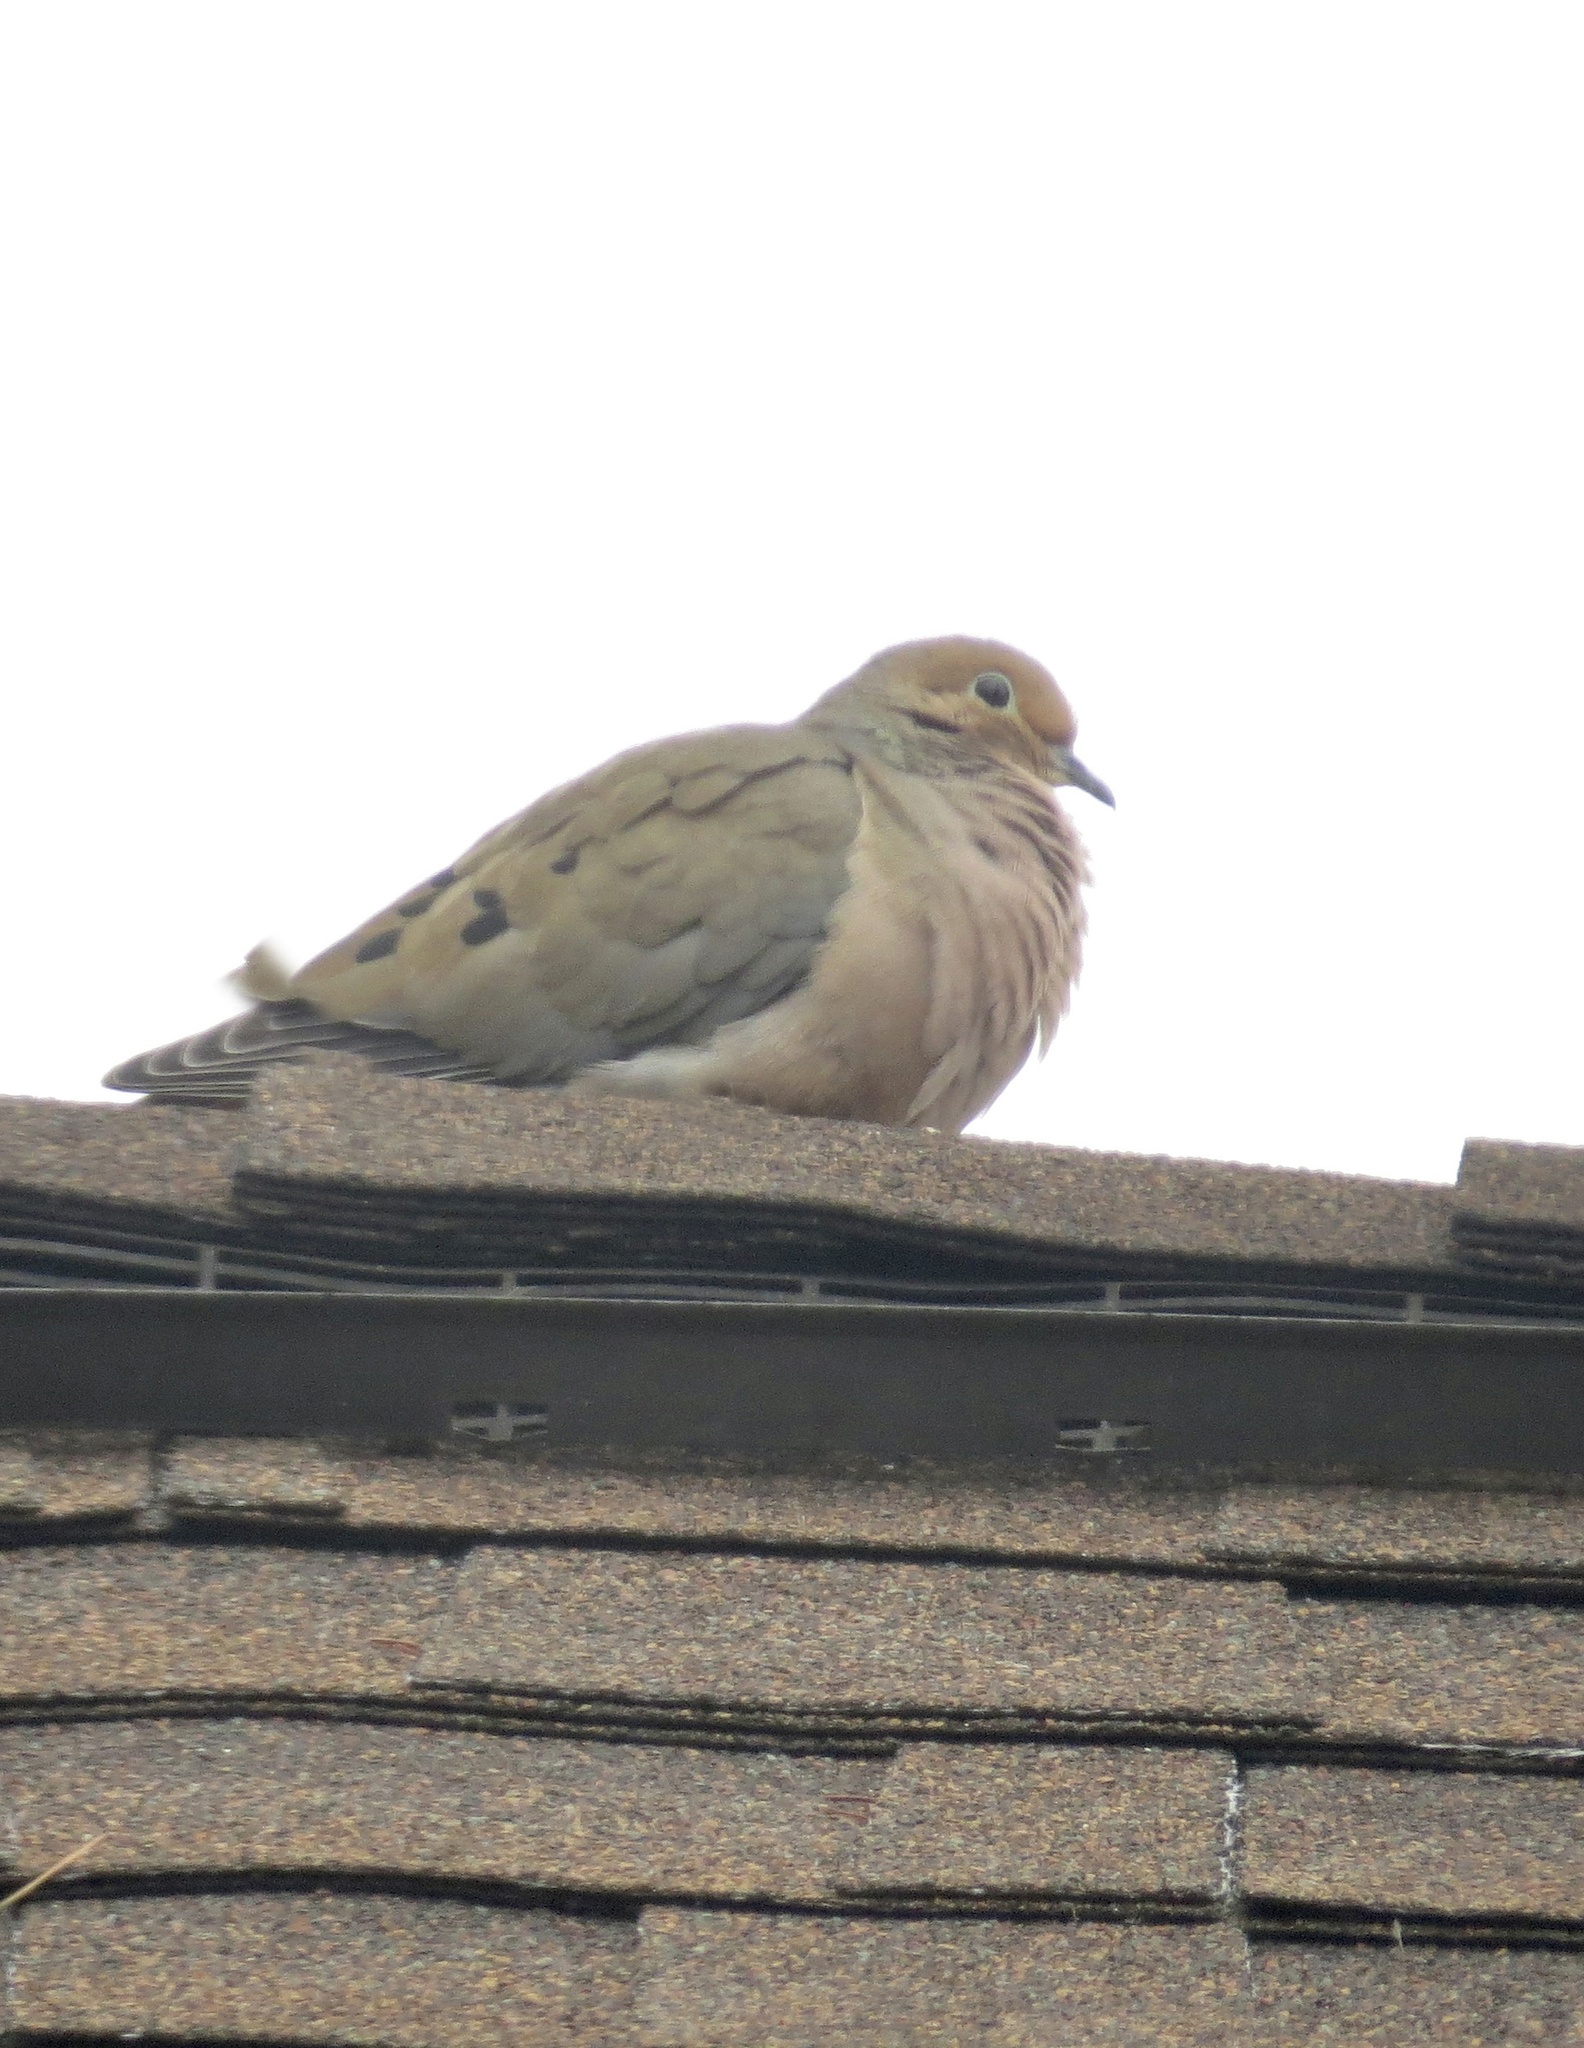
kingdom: Animalia
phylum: Chordata
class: Aves
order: Columbiformes
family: Columbidae
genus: Zenaida
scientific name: Zenaida macroura
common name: Mourning dove
